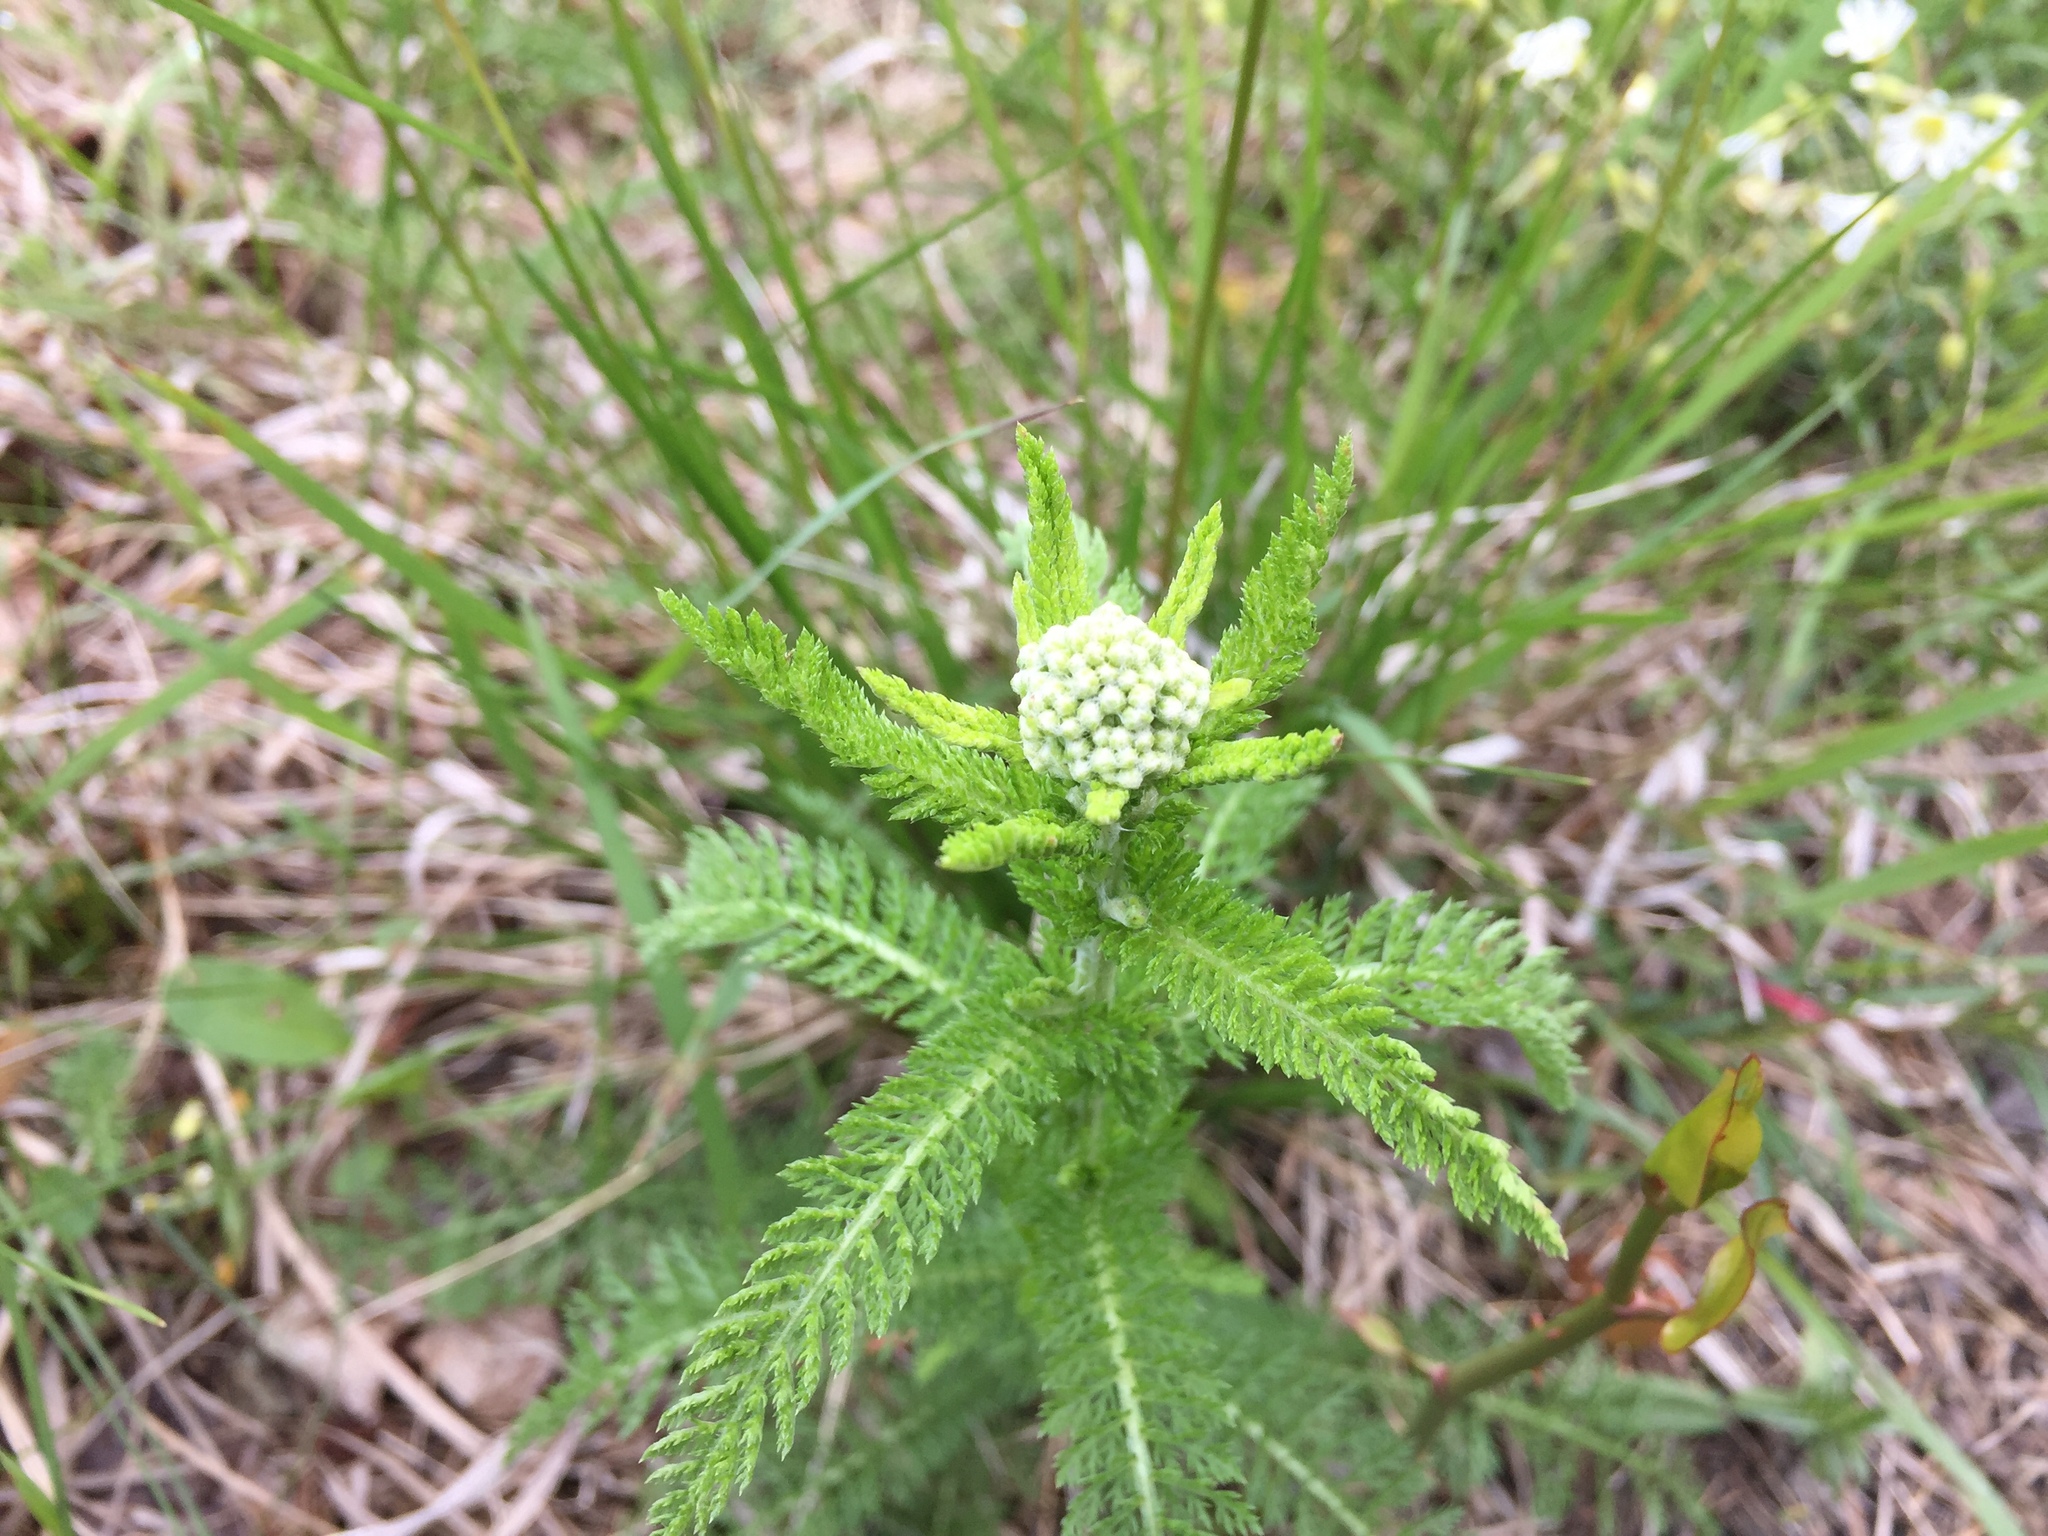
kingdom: Plantae
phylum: Tracheophyta
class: Magnoliopsida
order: Asterales
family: Asteraceae
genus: Achillea
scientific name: Achillea millefolium
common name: Yarrow
